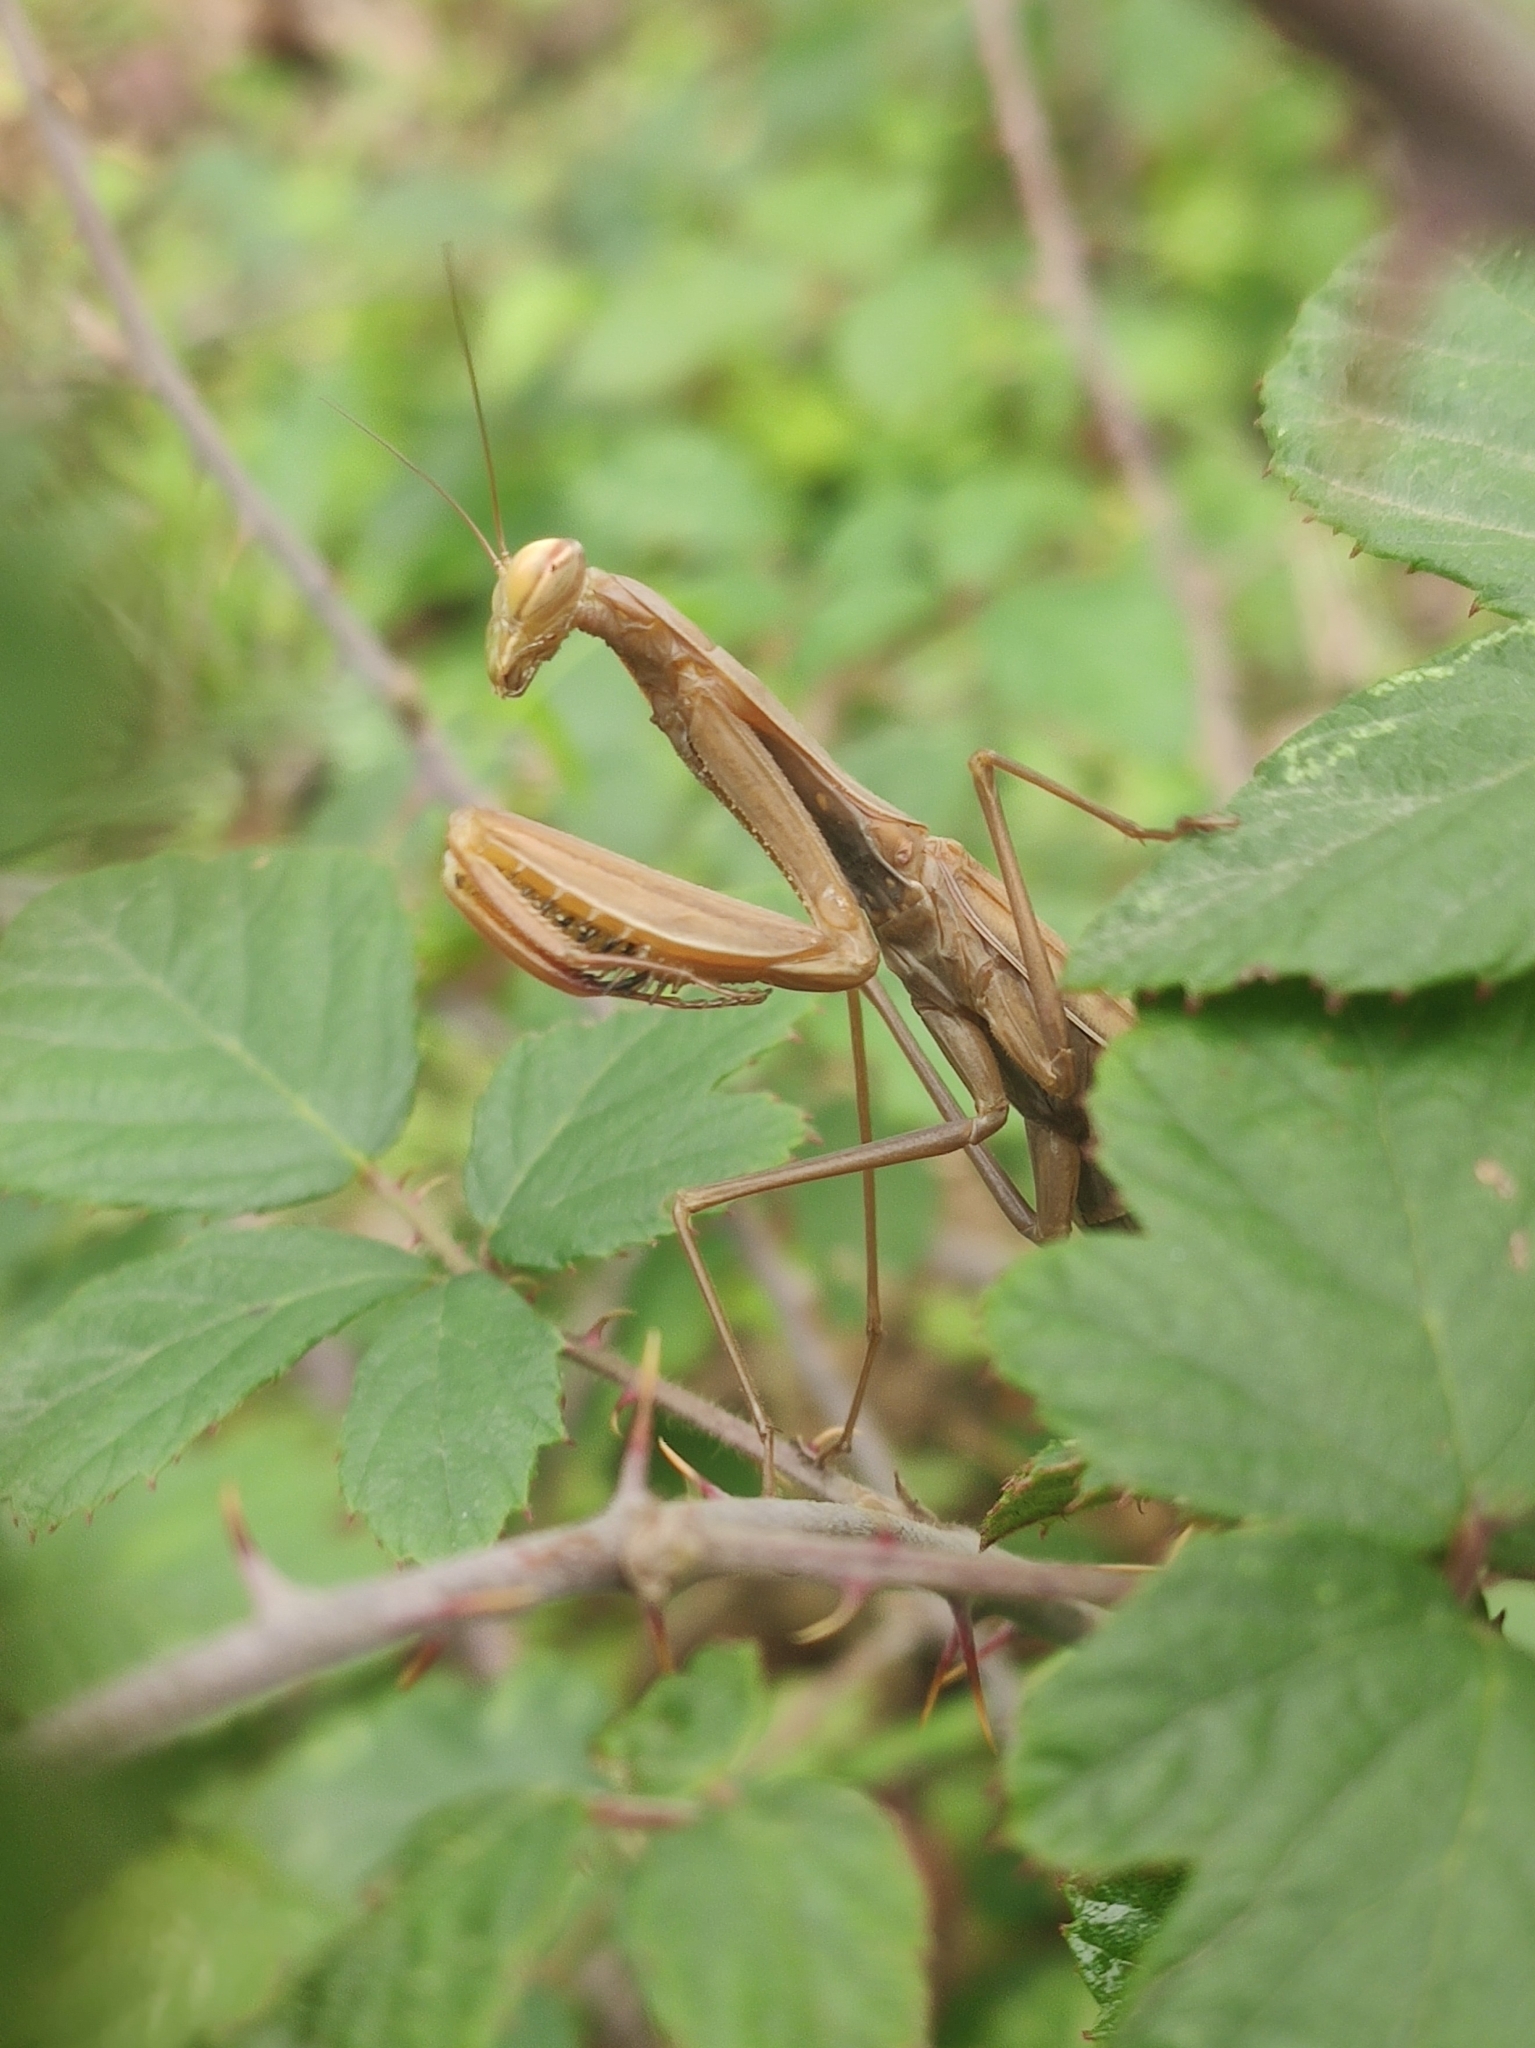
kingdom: Animalia
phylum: Arthropoda
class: Insecta
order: Mantodea
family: Mantidae
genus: Mantis
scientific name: Mantis religiosa
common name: Praying mantis
